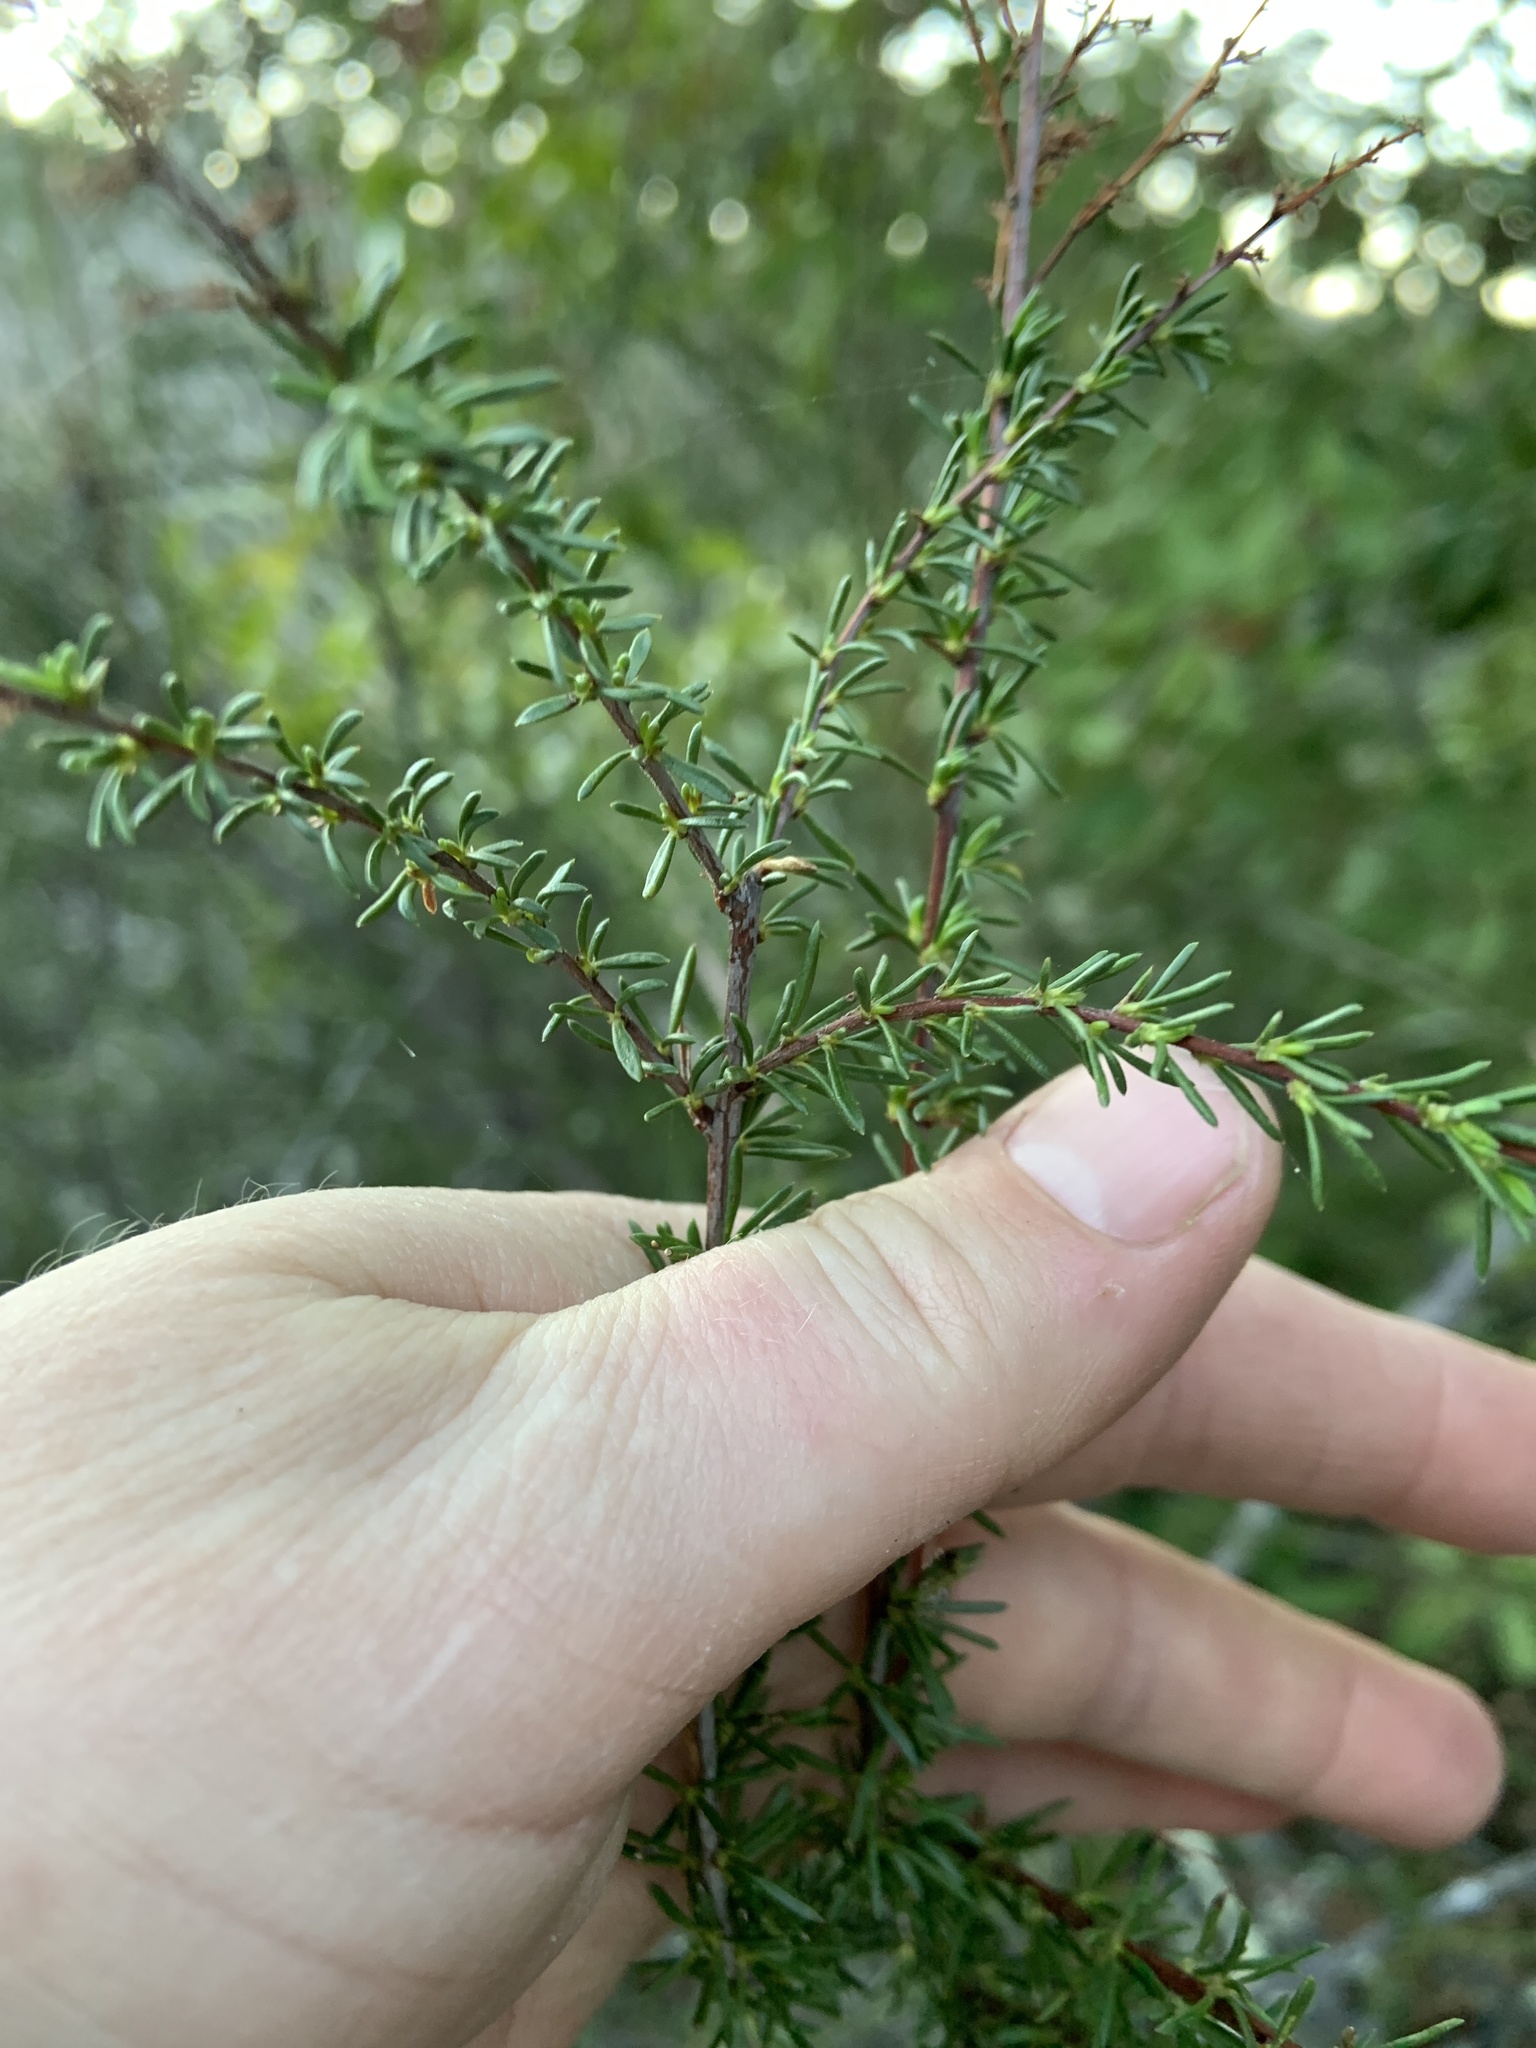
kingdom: Plantae
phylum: Tracheophyta
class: Magnoliopsida
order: Rosales
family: Rosaceae
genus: Adenostoma
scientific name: Adenostoma fasciculatum
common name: Chamise
